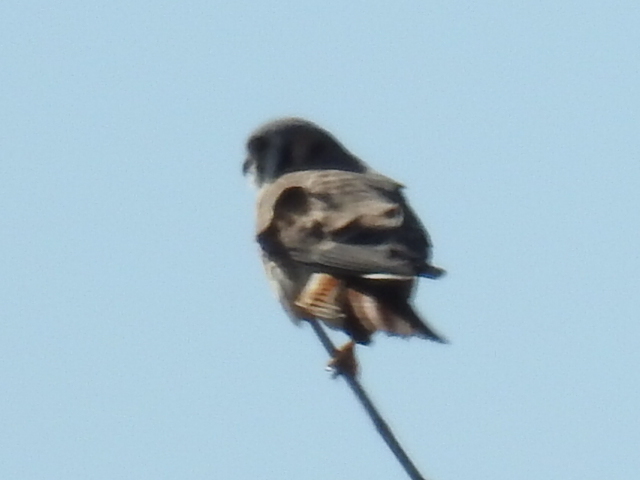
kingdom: Animalia
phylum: Chordata
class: Aves
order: Falconiformes
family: Falconidae
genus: Falco
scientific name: Falco sparverius
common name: American kestrel
